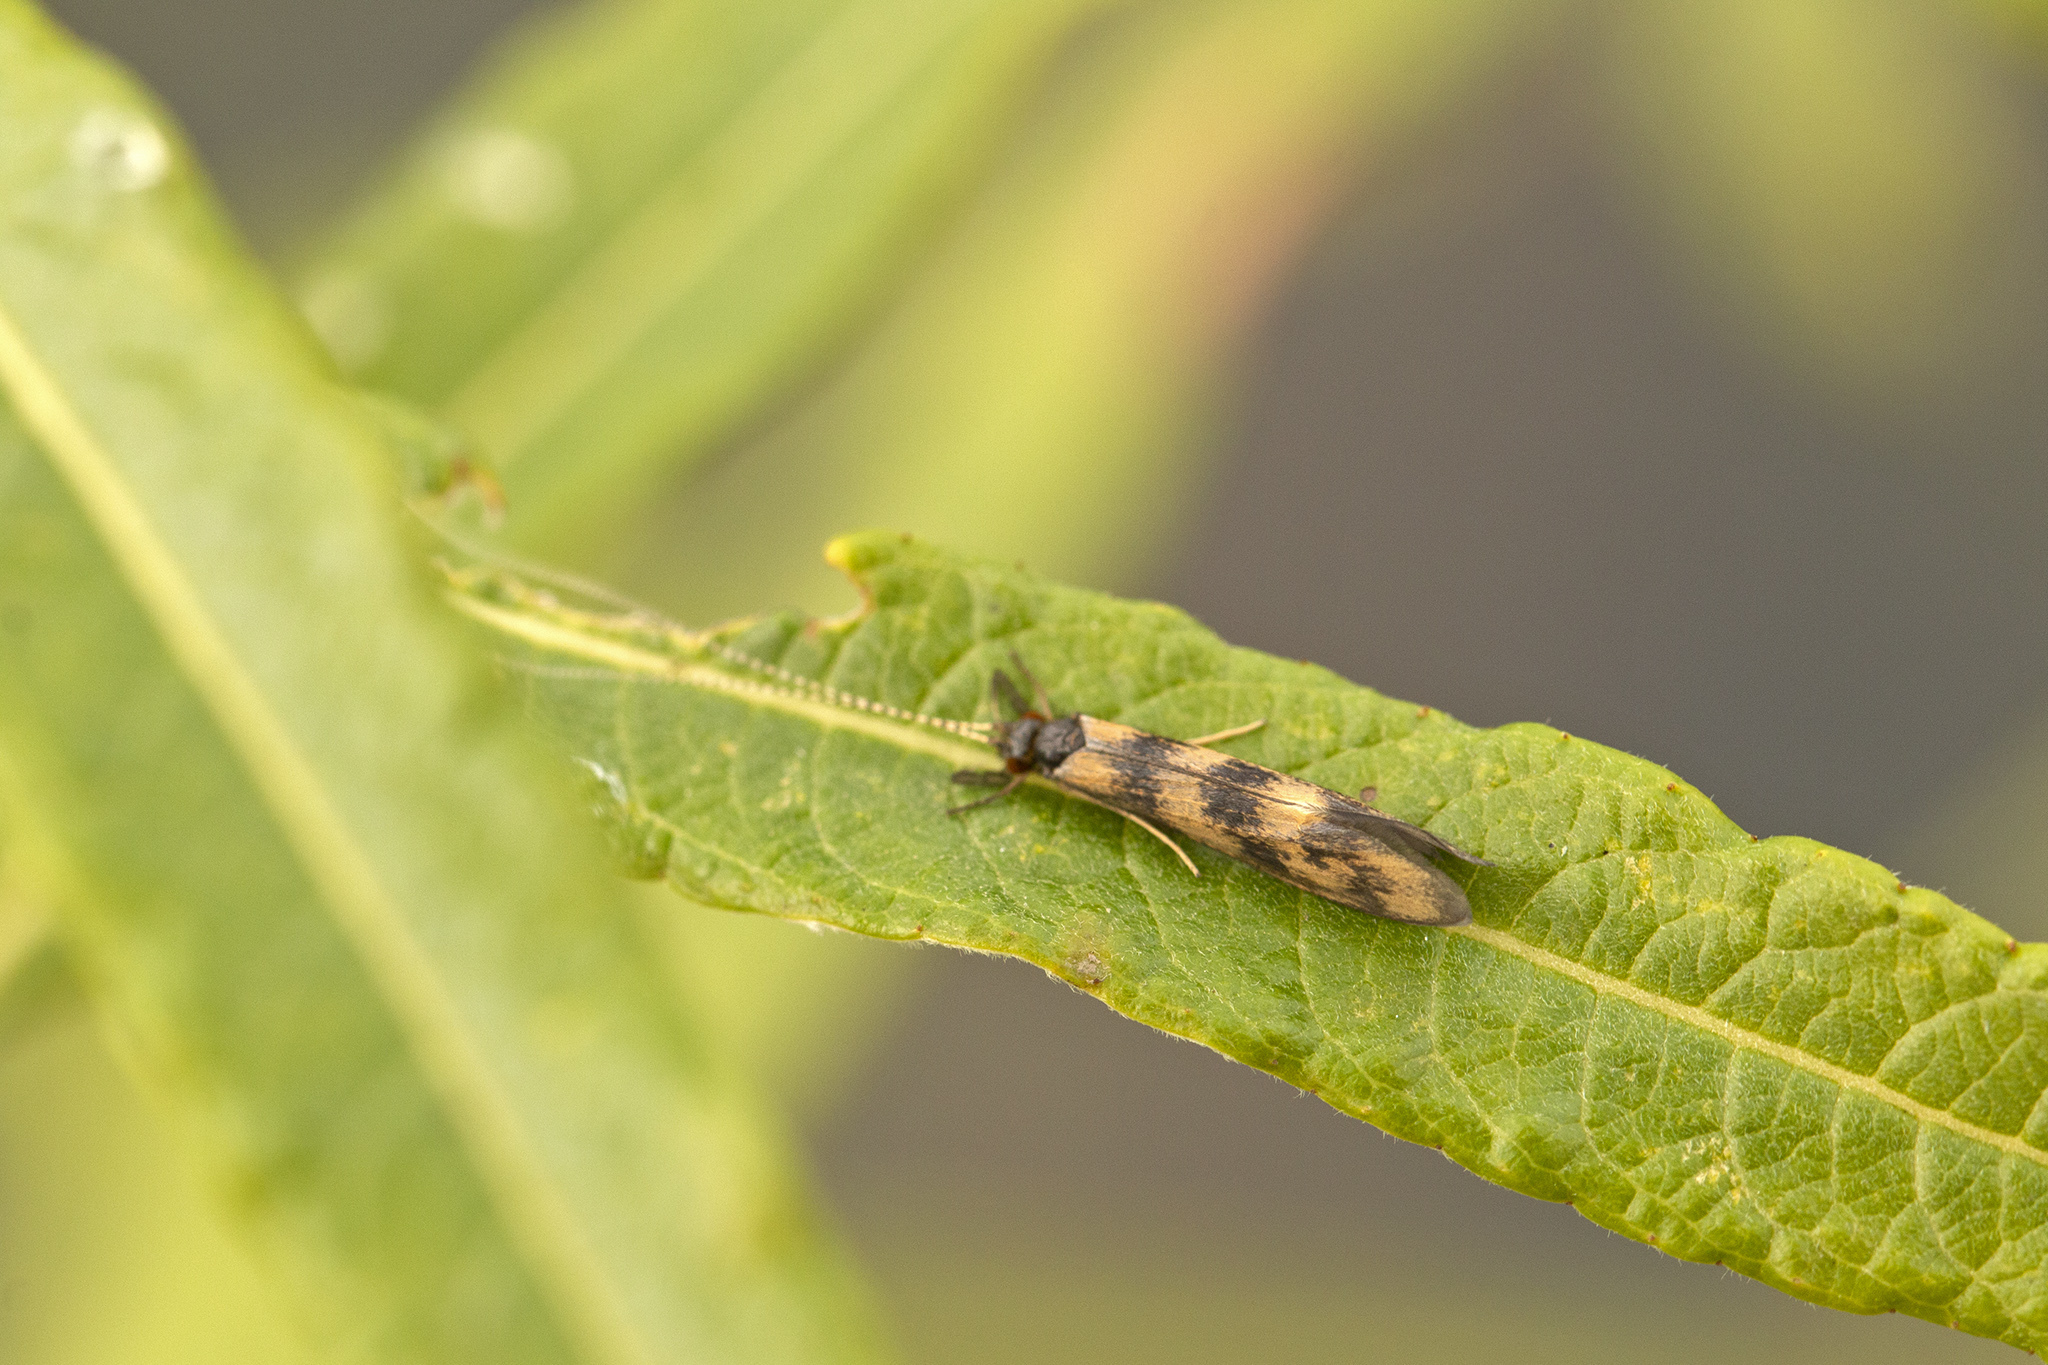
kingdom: Animalia
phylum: Arthropoda
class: Insecta
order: Trichoptera
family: Leptoceridae
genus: Mystacides
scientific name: Mystacides longicornis
